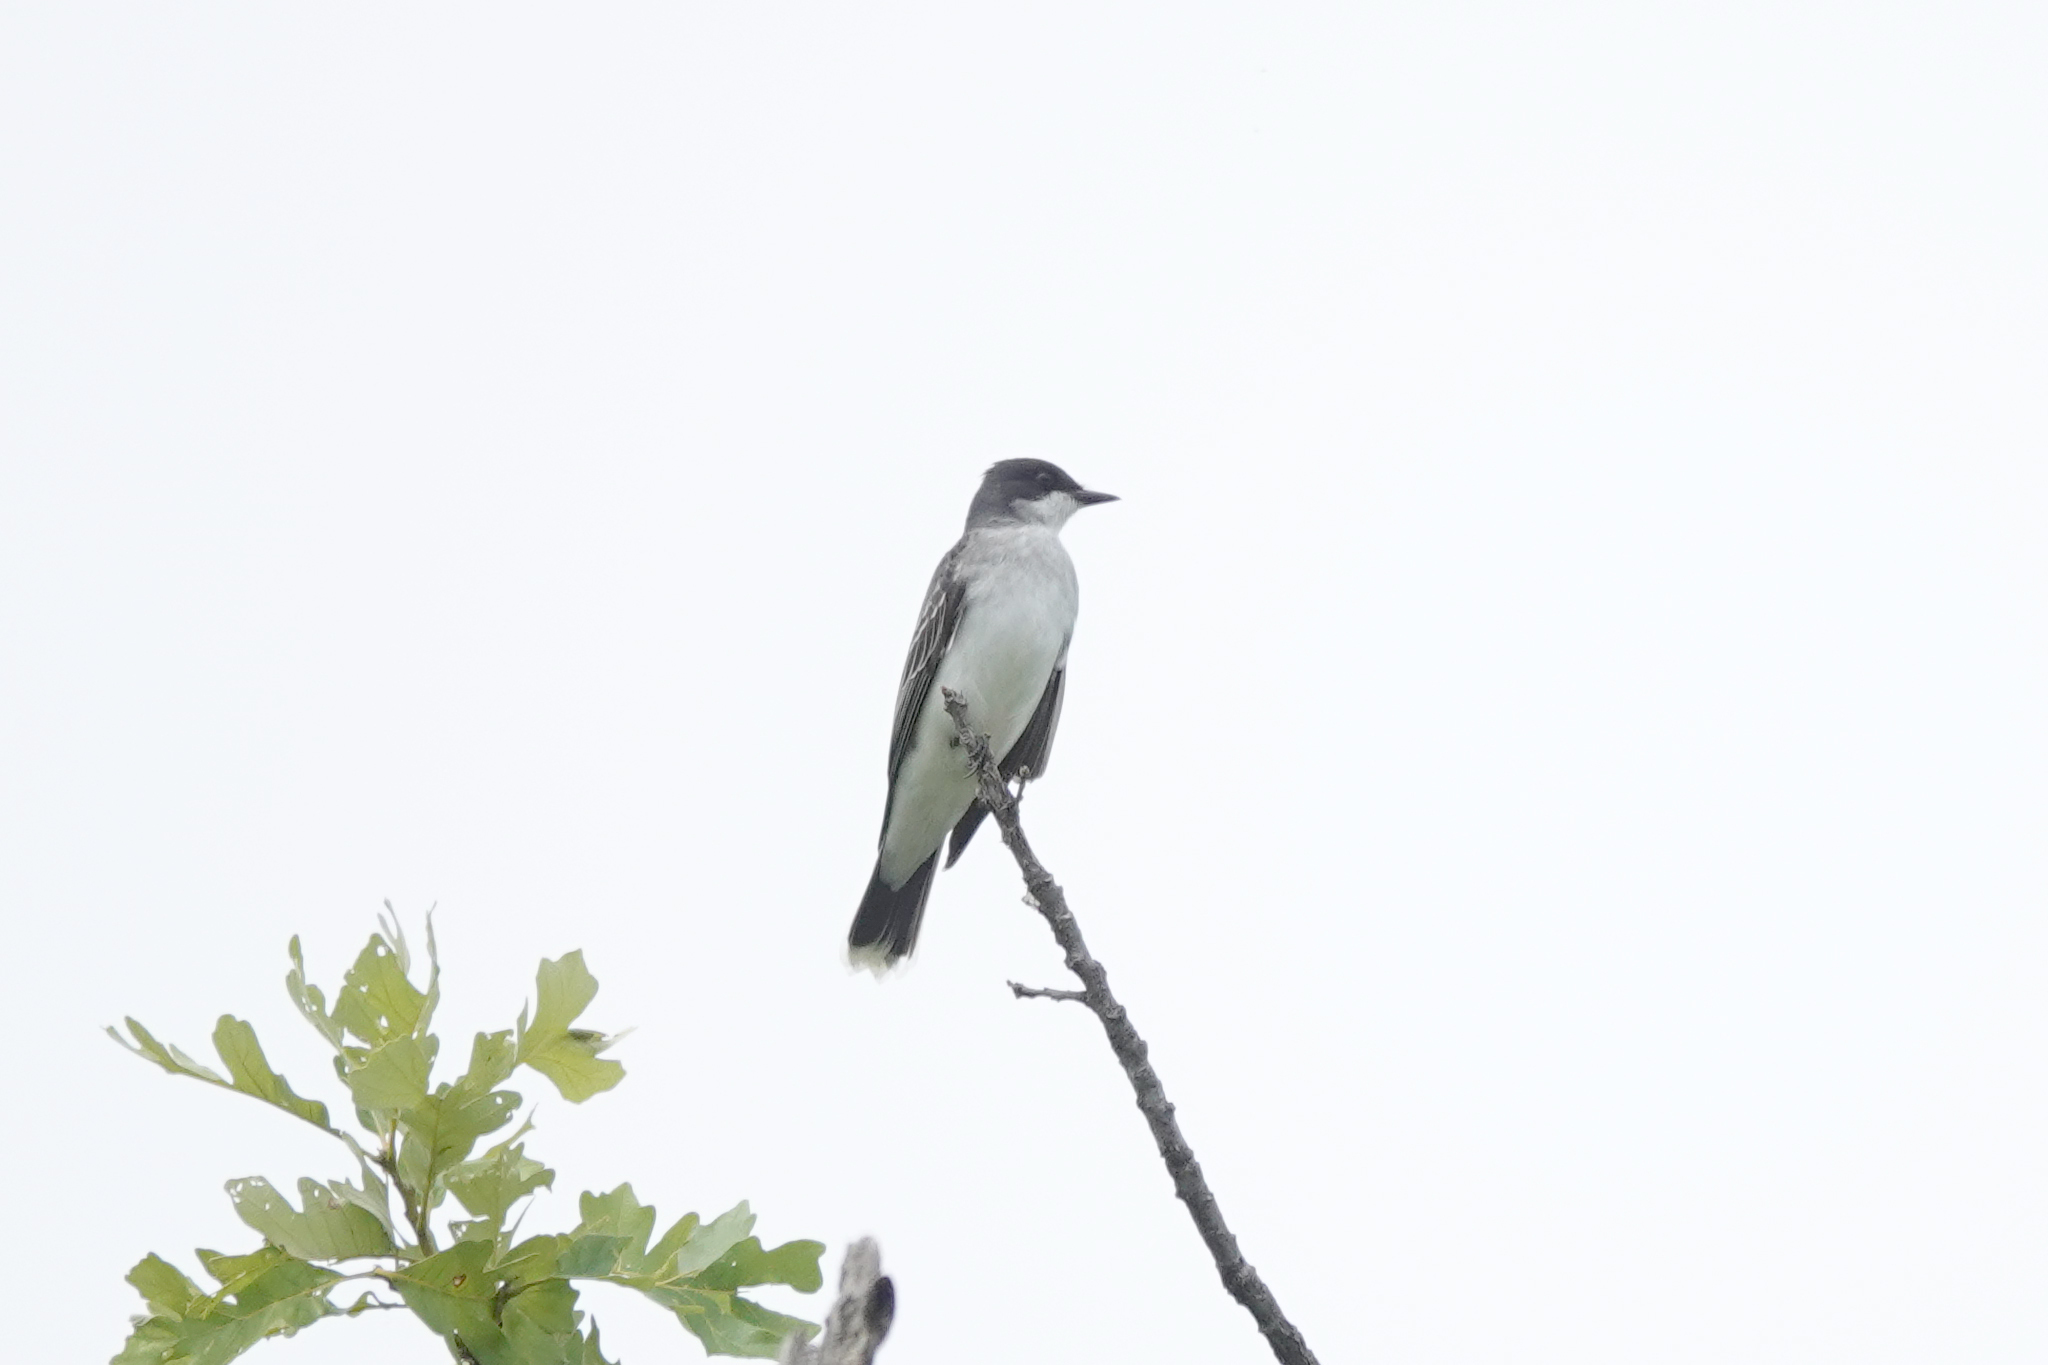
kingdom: Animalia
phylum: Chordata
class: Aves
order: Passeriformes
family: Tyrannidae
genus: Tyrannus
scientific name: Tyrannus tyrannus
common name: Eastern kingbird
